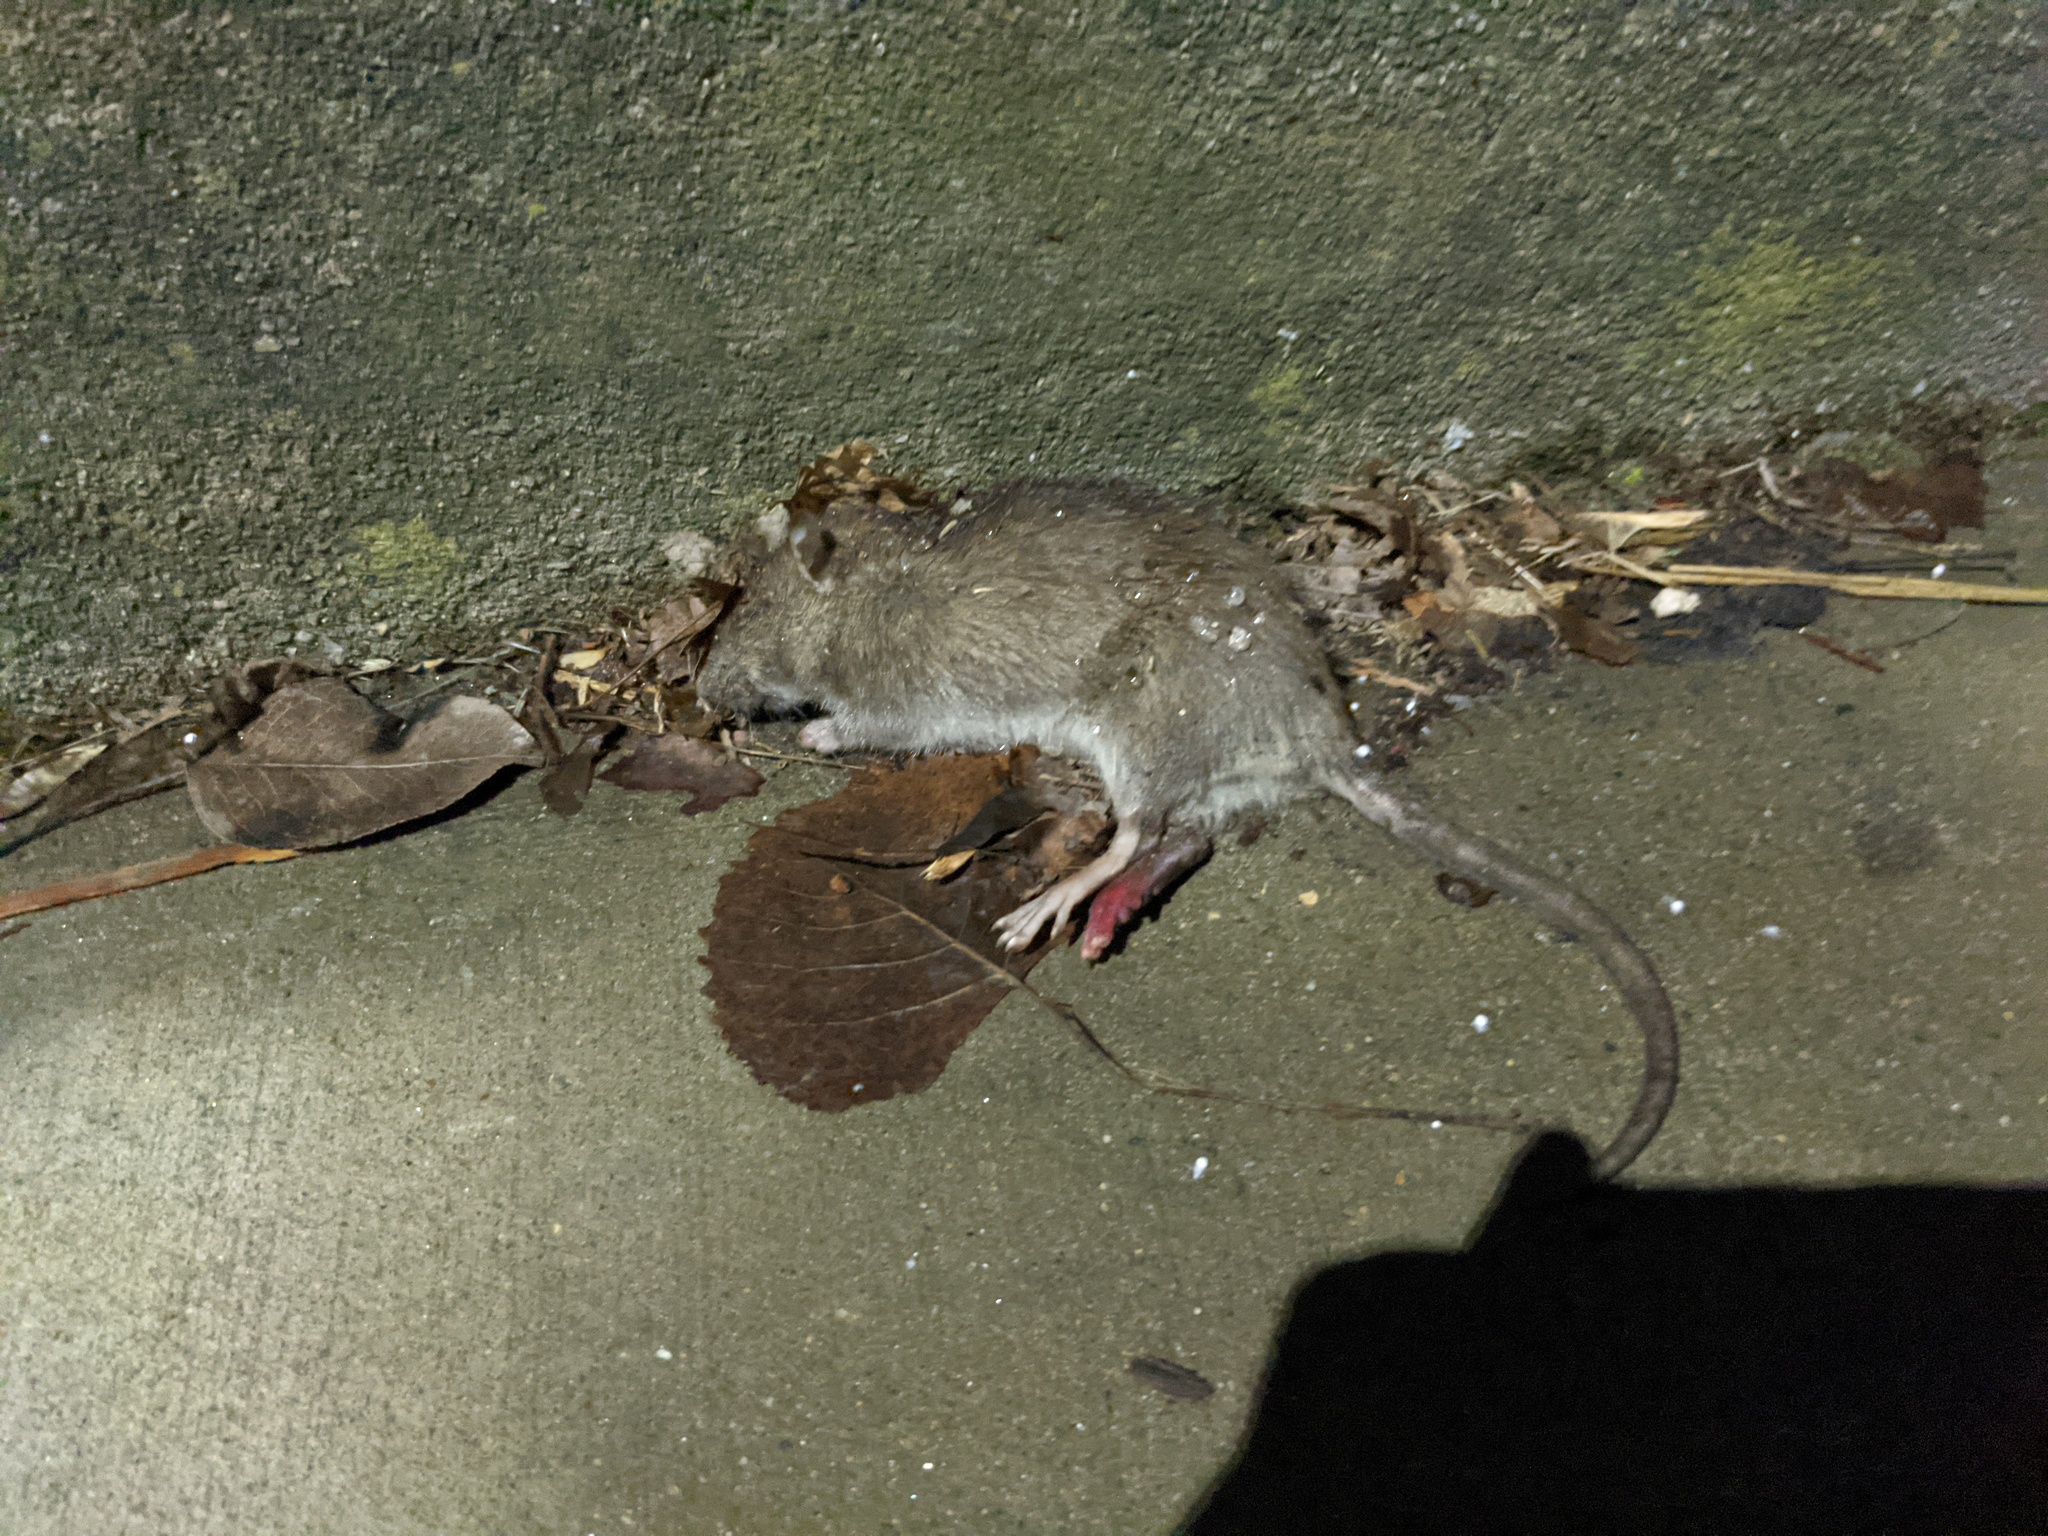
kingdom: Animalia
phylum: Chordata
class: Mammalia
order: Rodentia
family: Muridae
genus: Rattus
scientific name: Rattus norvegicus
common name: Brown rat
